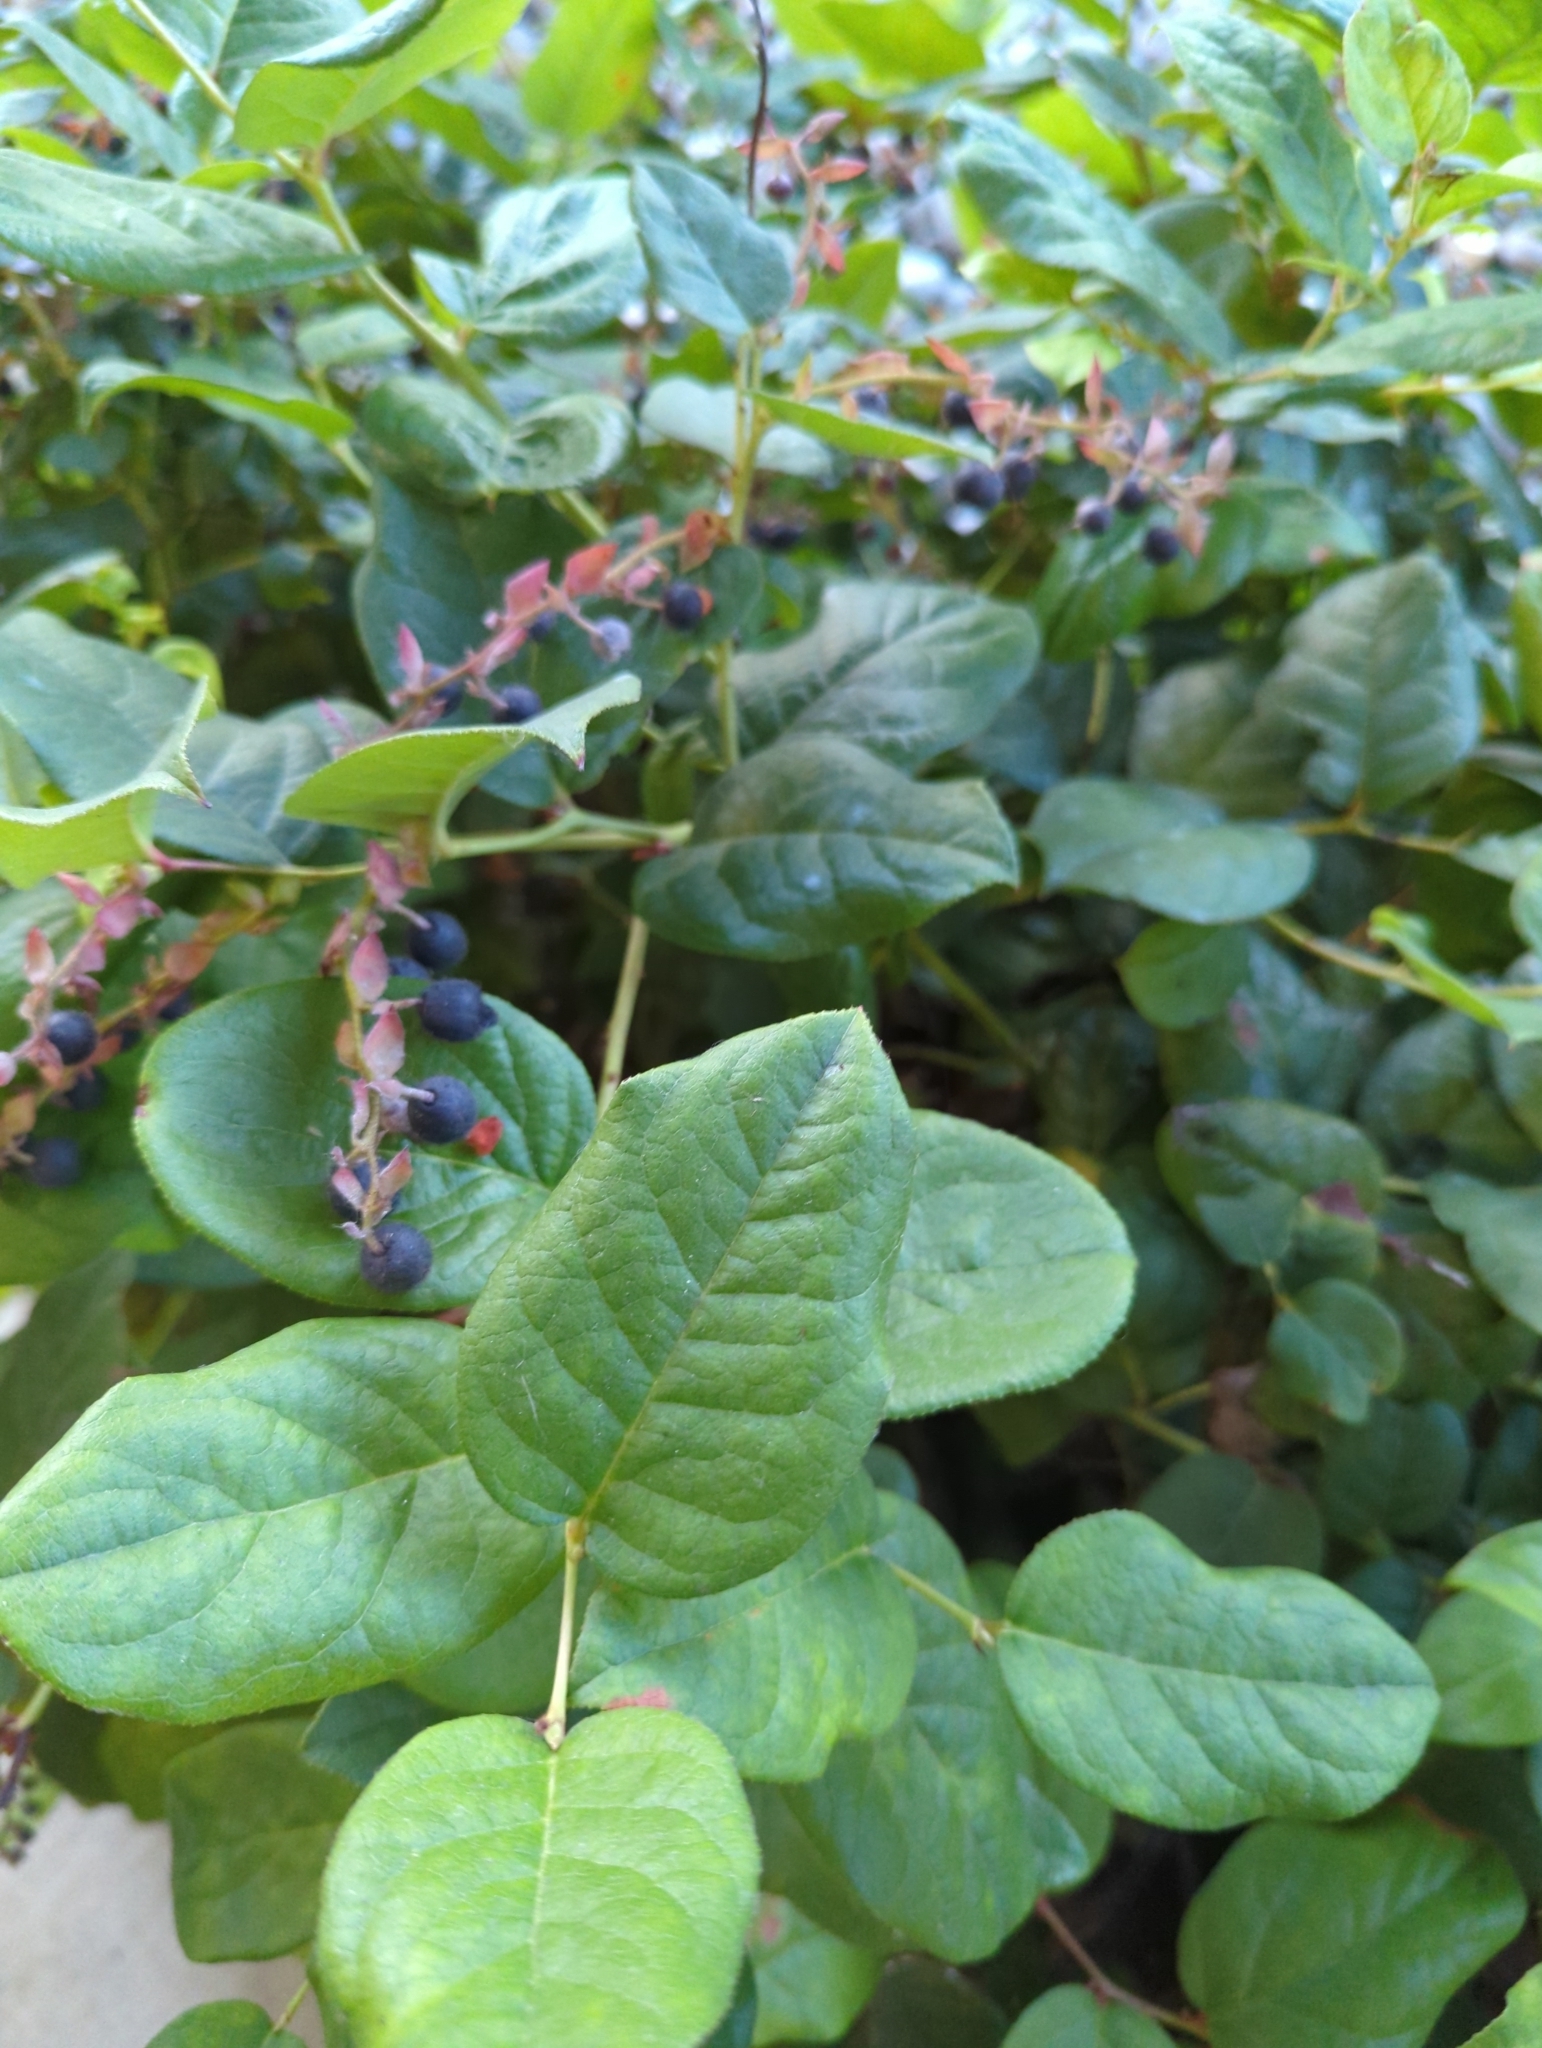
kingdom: Plantae
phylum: Tracheophyta
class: Magnoliopsida
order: Ericales
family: Ericaceae
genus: Gaultheria
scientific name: Gaultheria shallon
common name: Shallon
